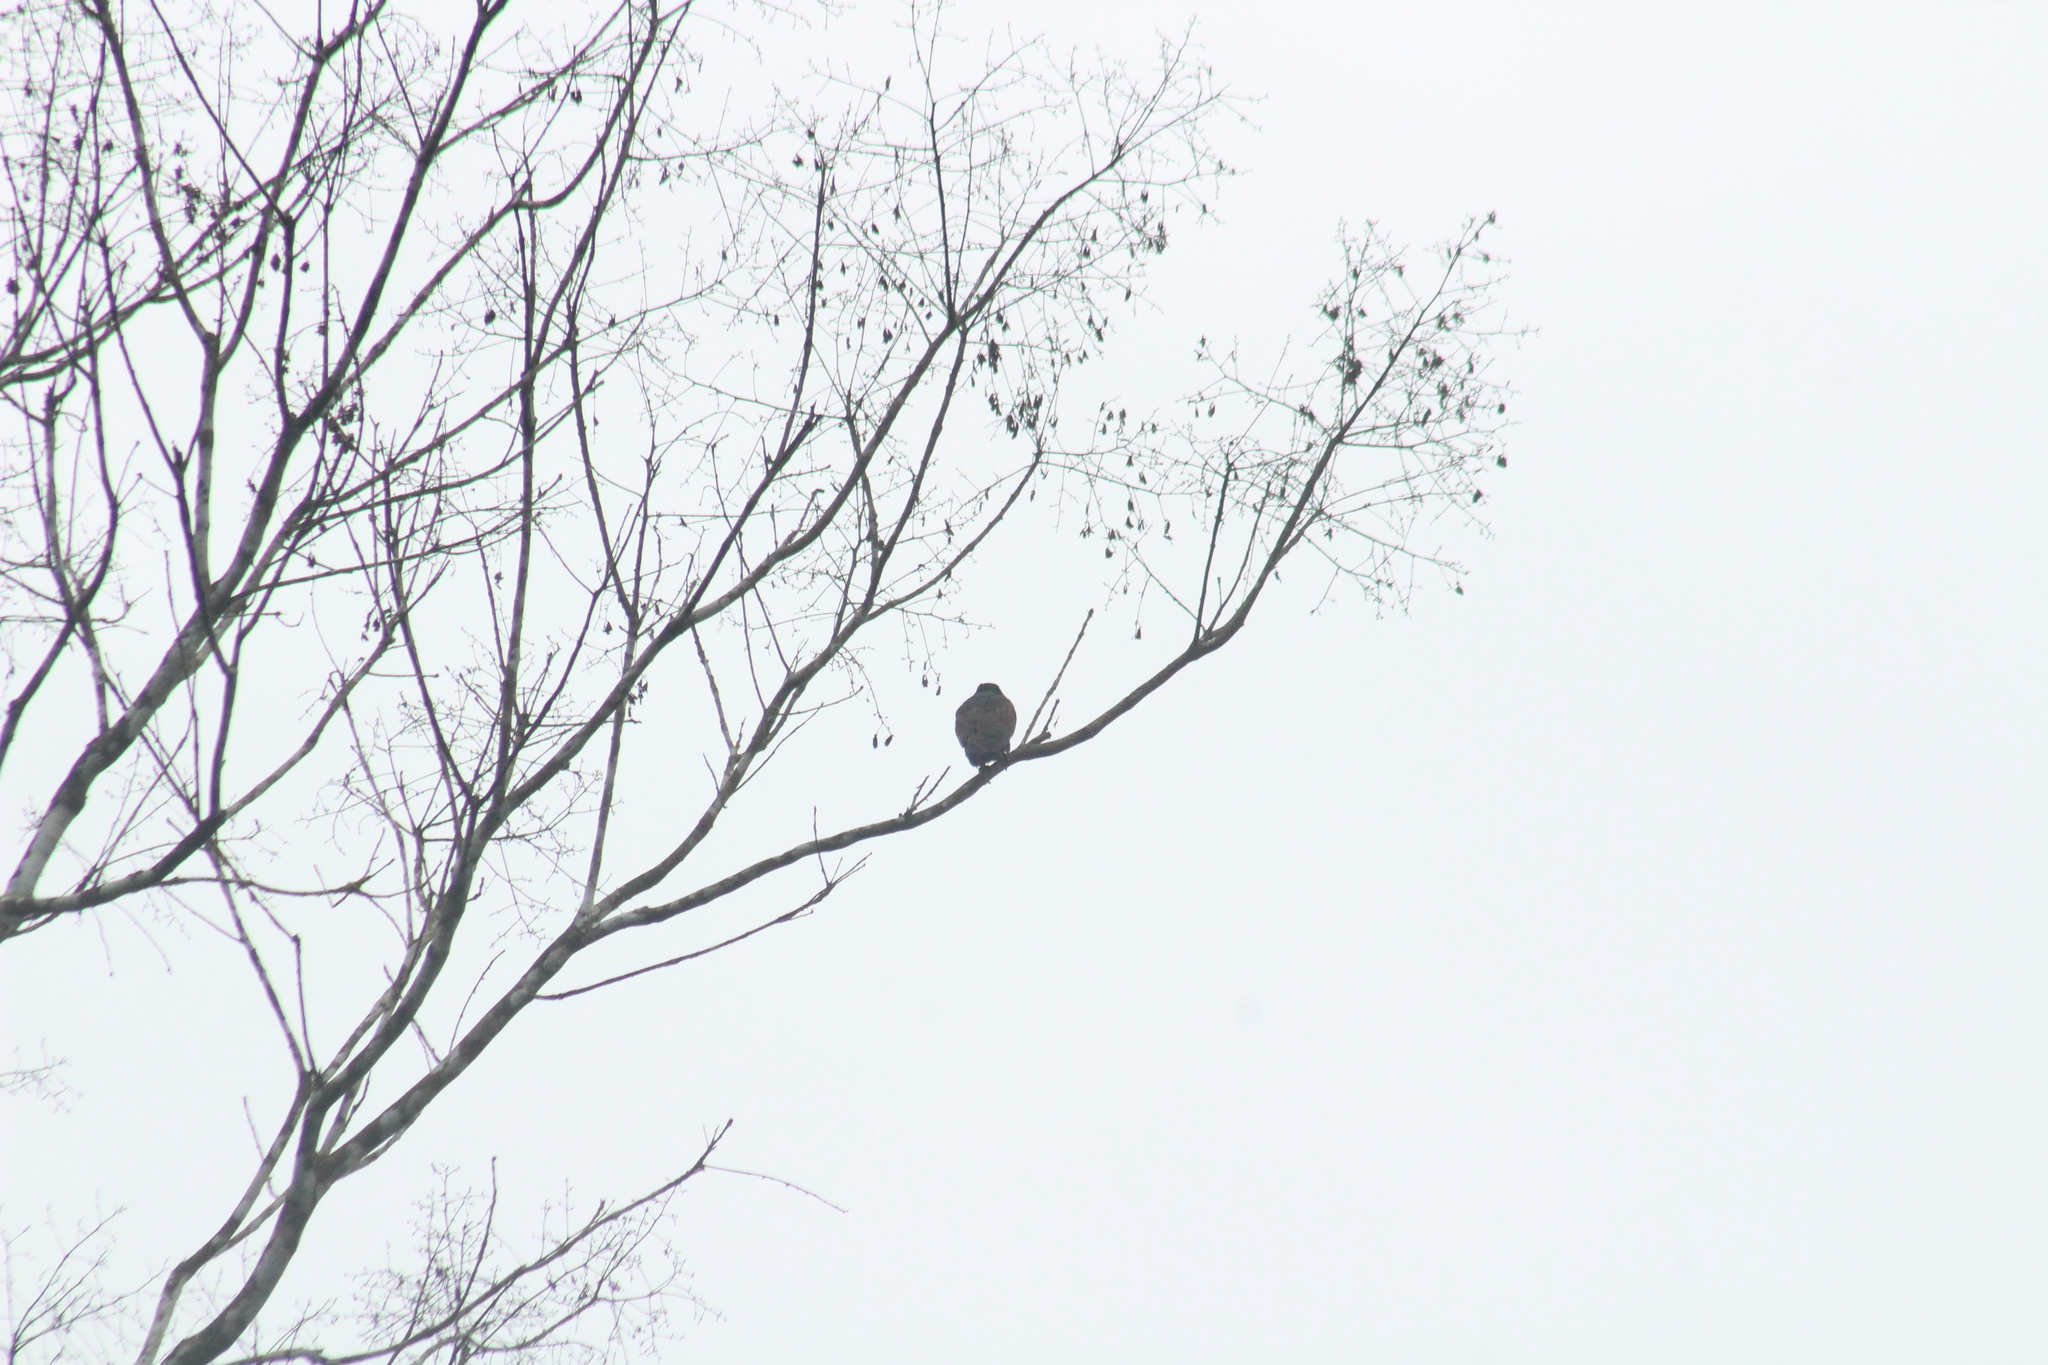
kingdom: Animalia
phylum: Chordata
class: Aves
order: Psittaciformes
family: Psittacidae
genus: Pionus
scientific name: Pionus chalcopterus
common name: Bronze-winged parrot
